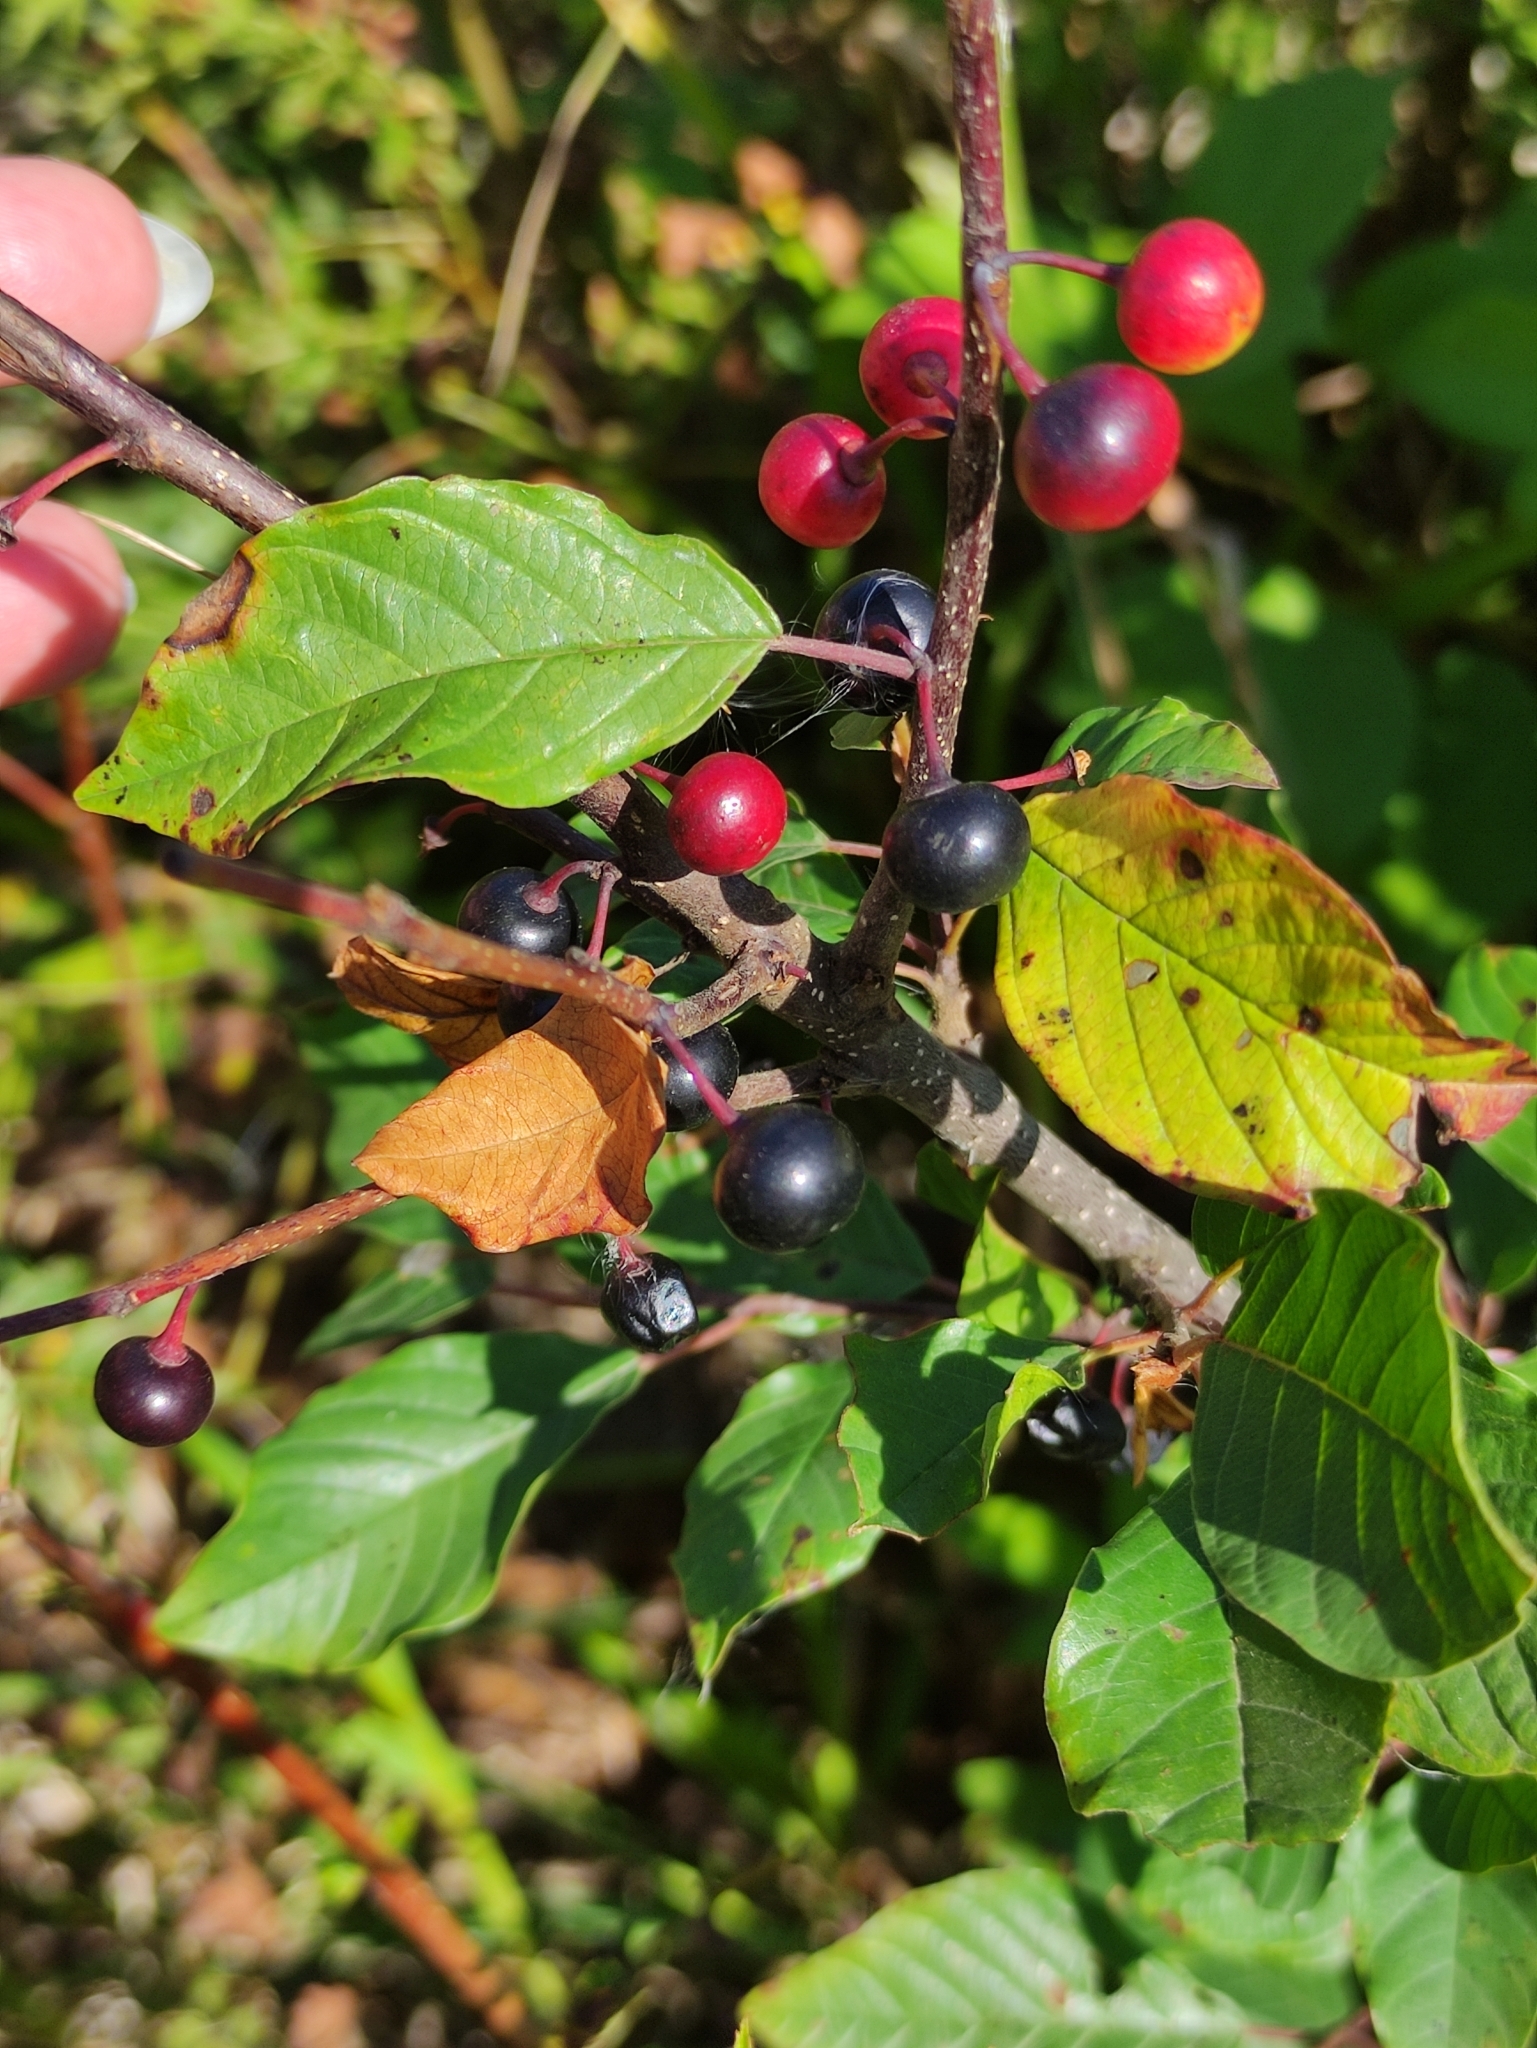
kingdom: Plantae
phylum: Tracheophyta
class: Magnoliopsida
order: Rosales
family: Rhamnaceae
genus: Frangula
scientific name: Frangula alnus
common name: Alder buckthorn
